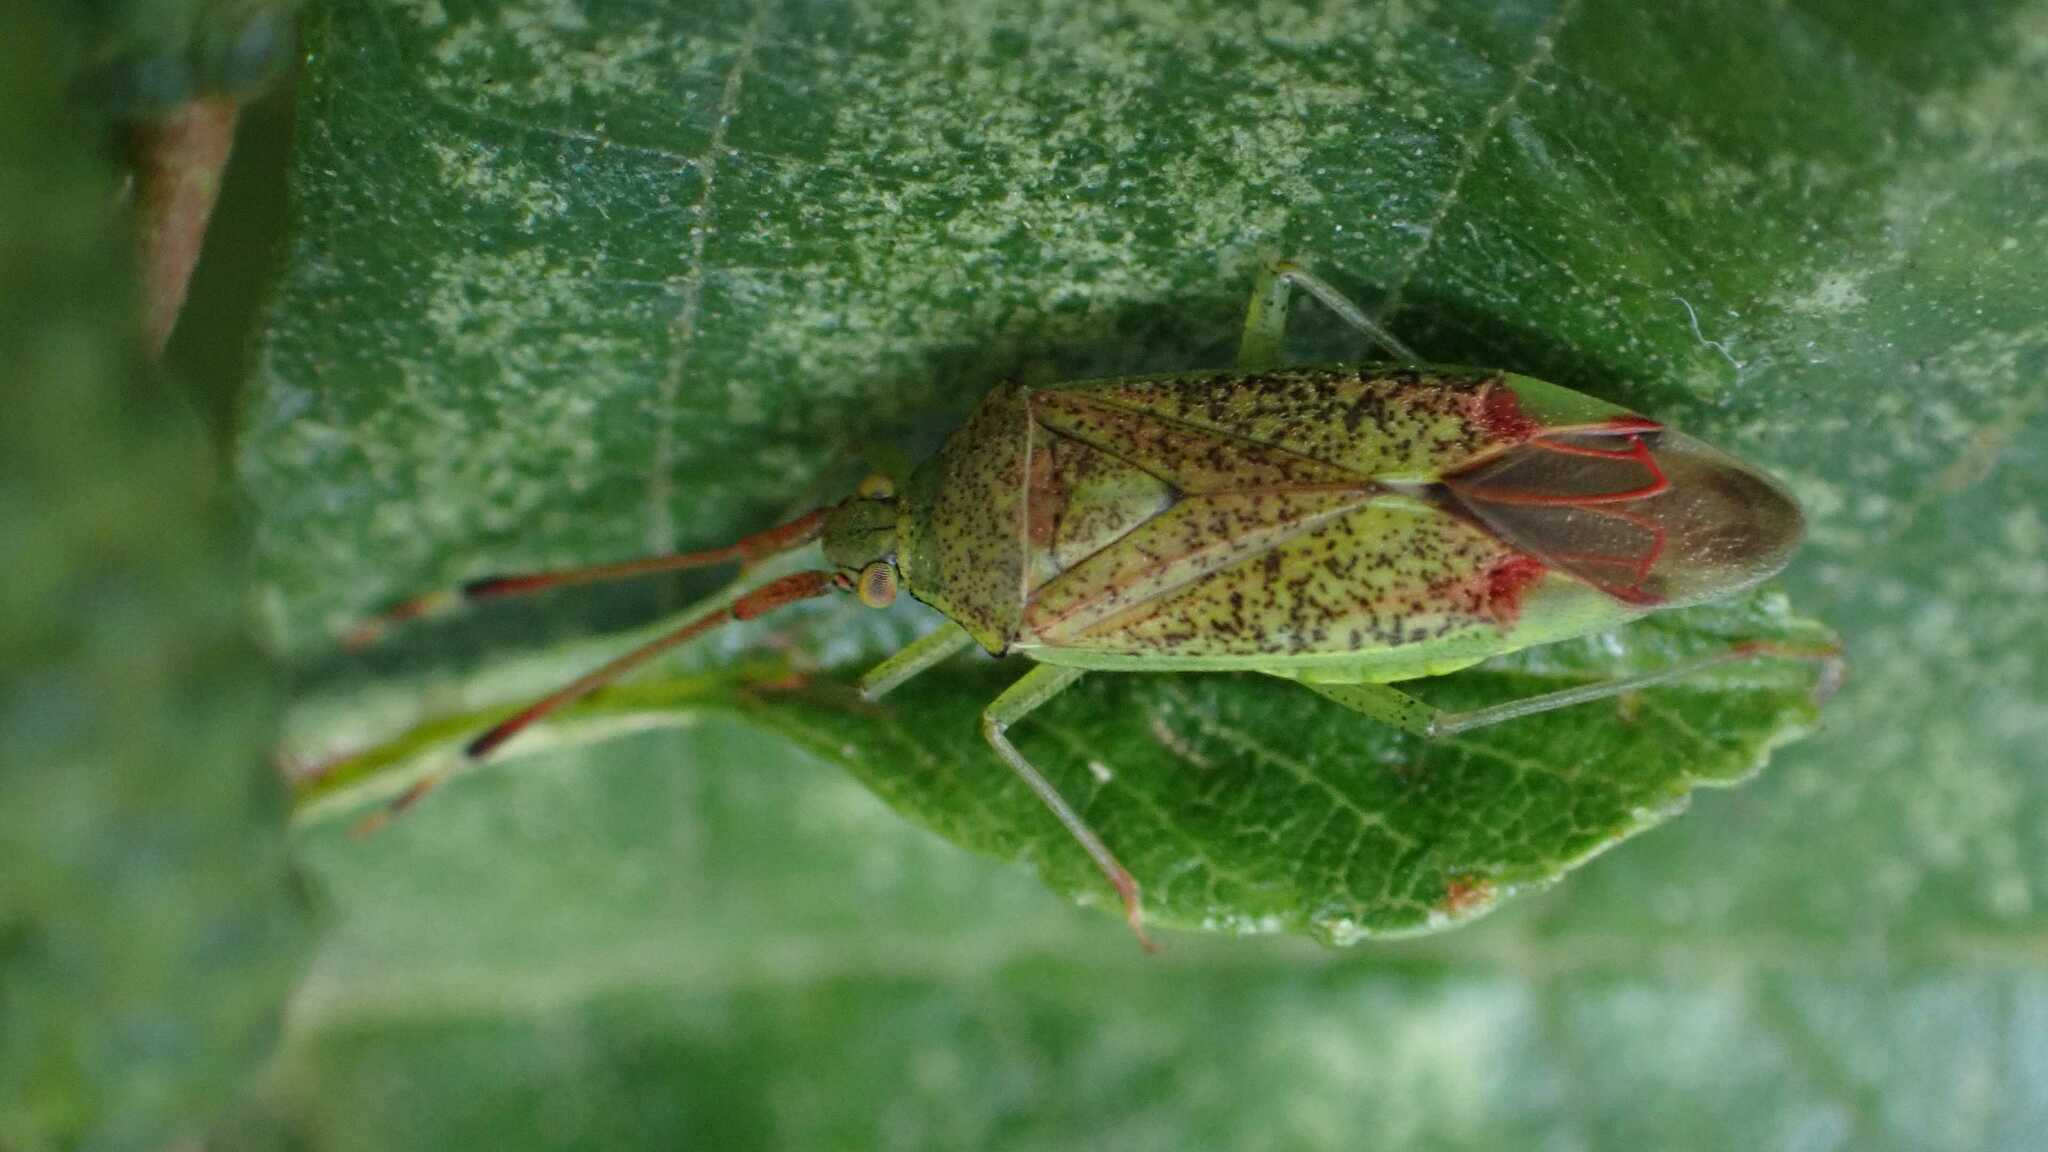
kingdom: Animalia
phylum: Arthropoda
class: Insecta
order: Hemiptera
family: Miridae
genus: Pantilius
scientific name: Pantilius tunicatus
